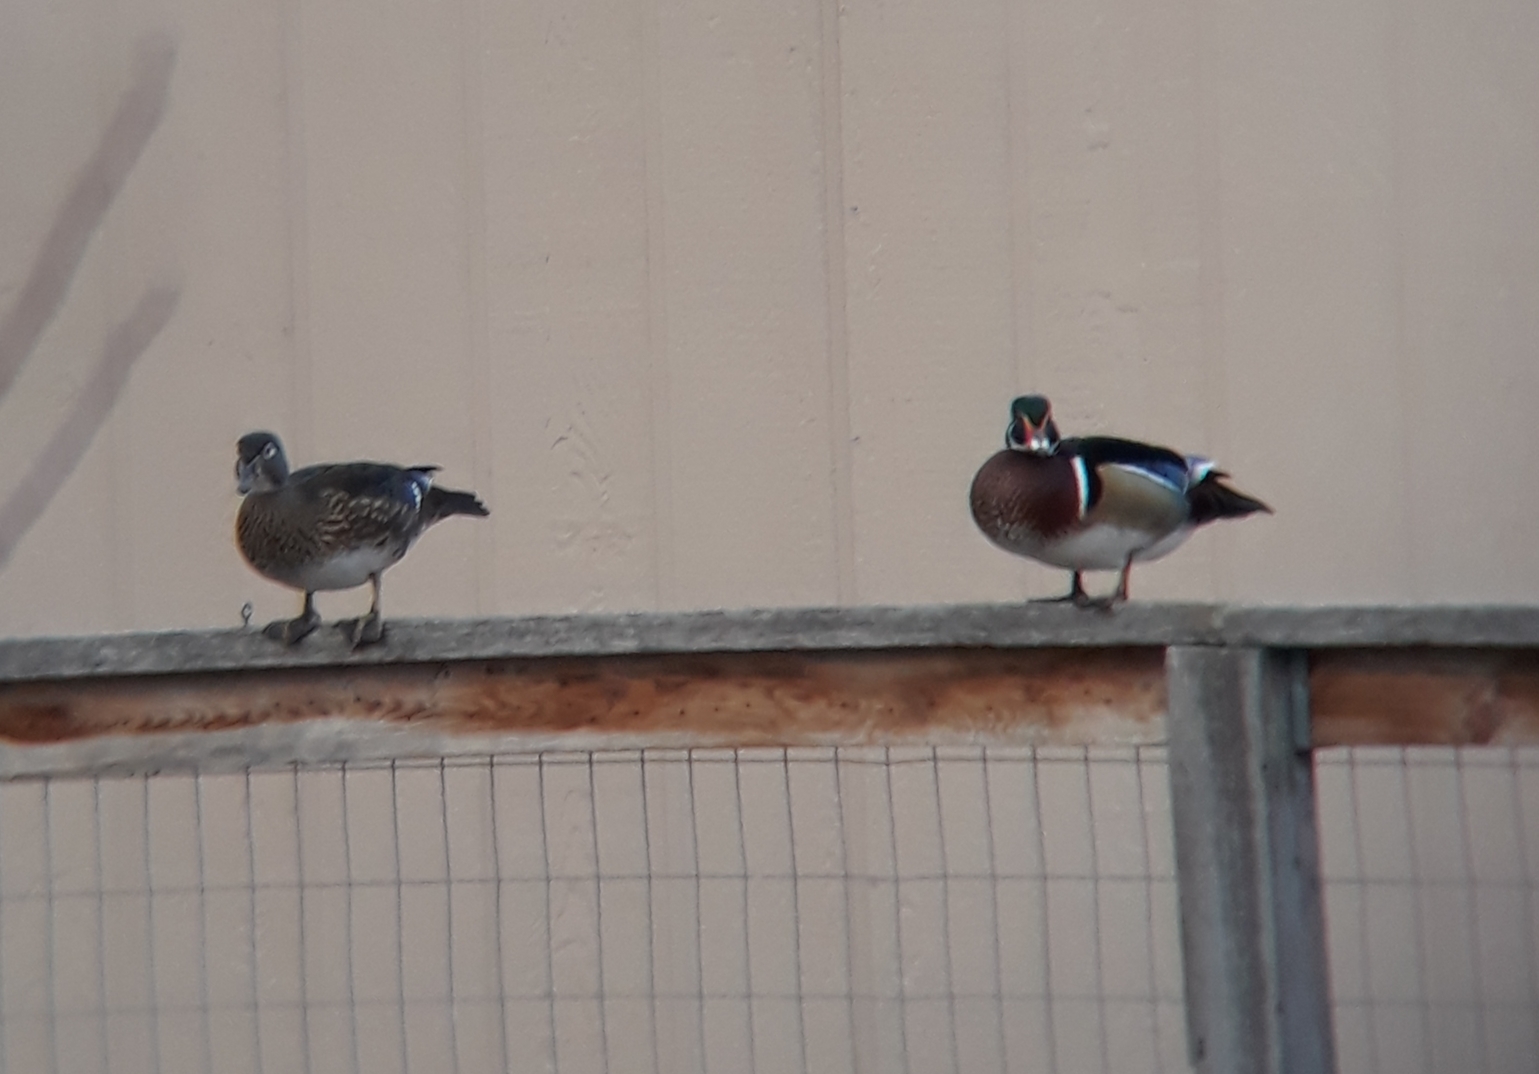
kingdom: Animalia
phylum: Chordata
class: Aves
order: Anseriformes
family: Anatidae
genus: Aix
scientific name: Aix sponsa
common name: Wood duck
